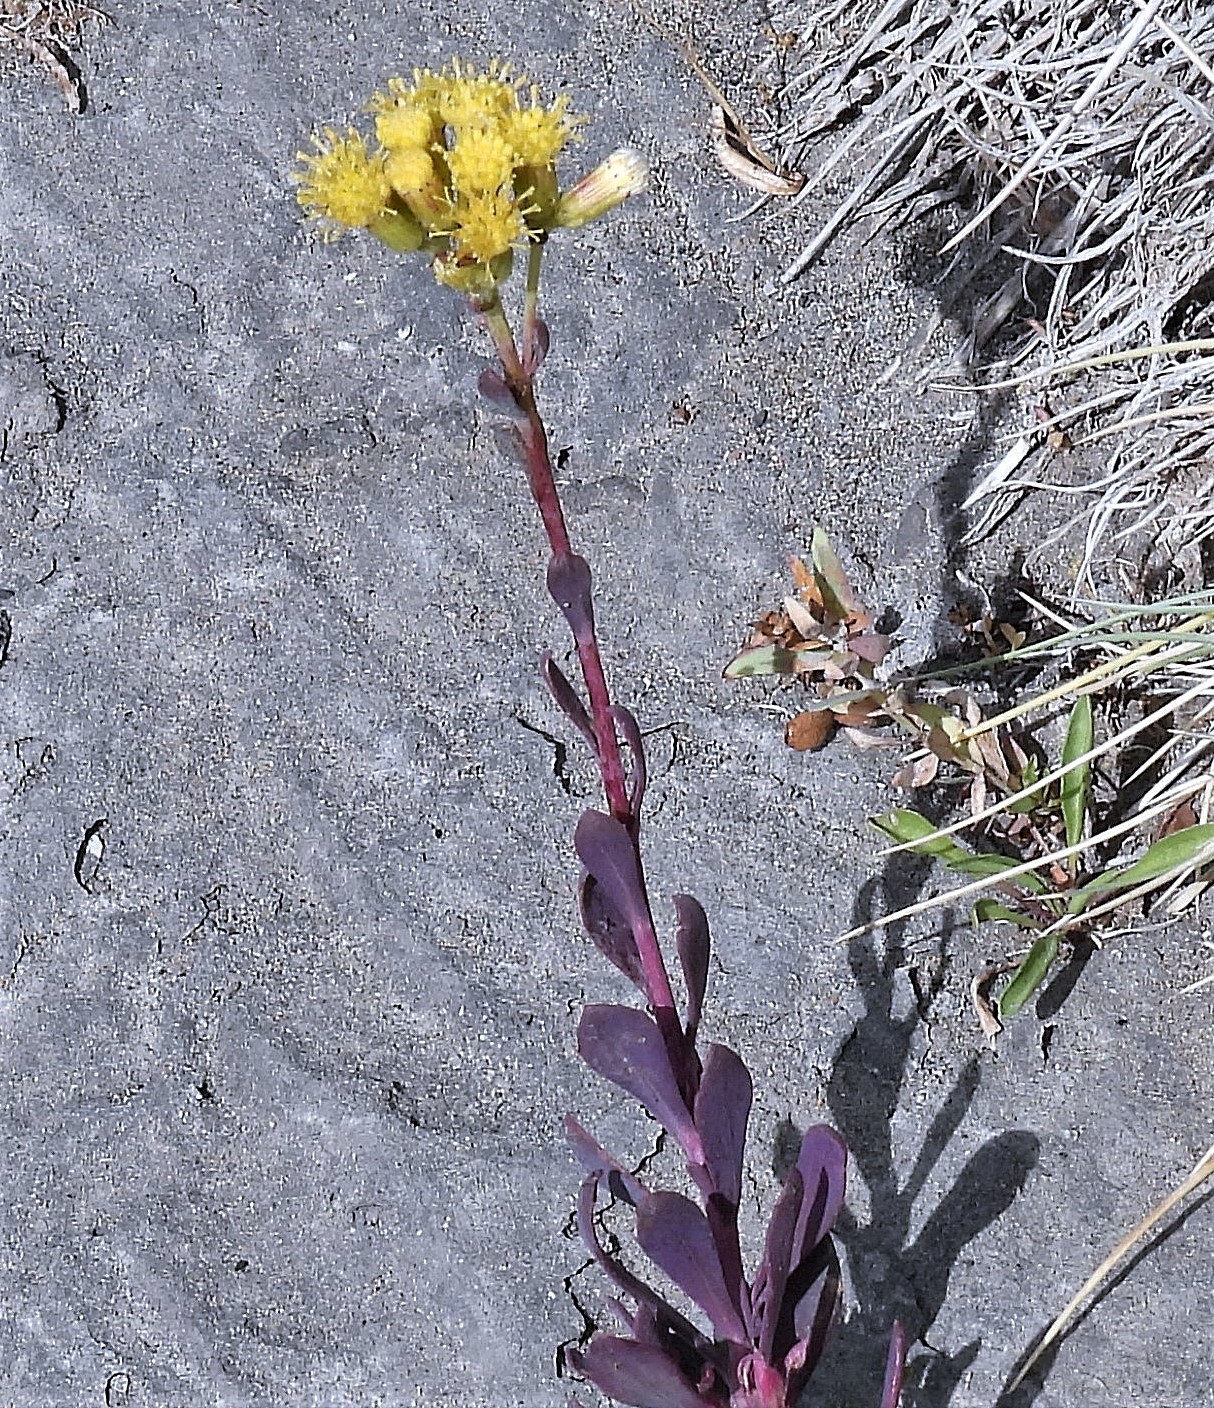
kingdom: Plantae
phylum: Tracheophyta
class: Magnoliopsida
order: Asterales
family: Asteraceae
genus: Senecio
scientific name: Senecio covasii
